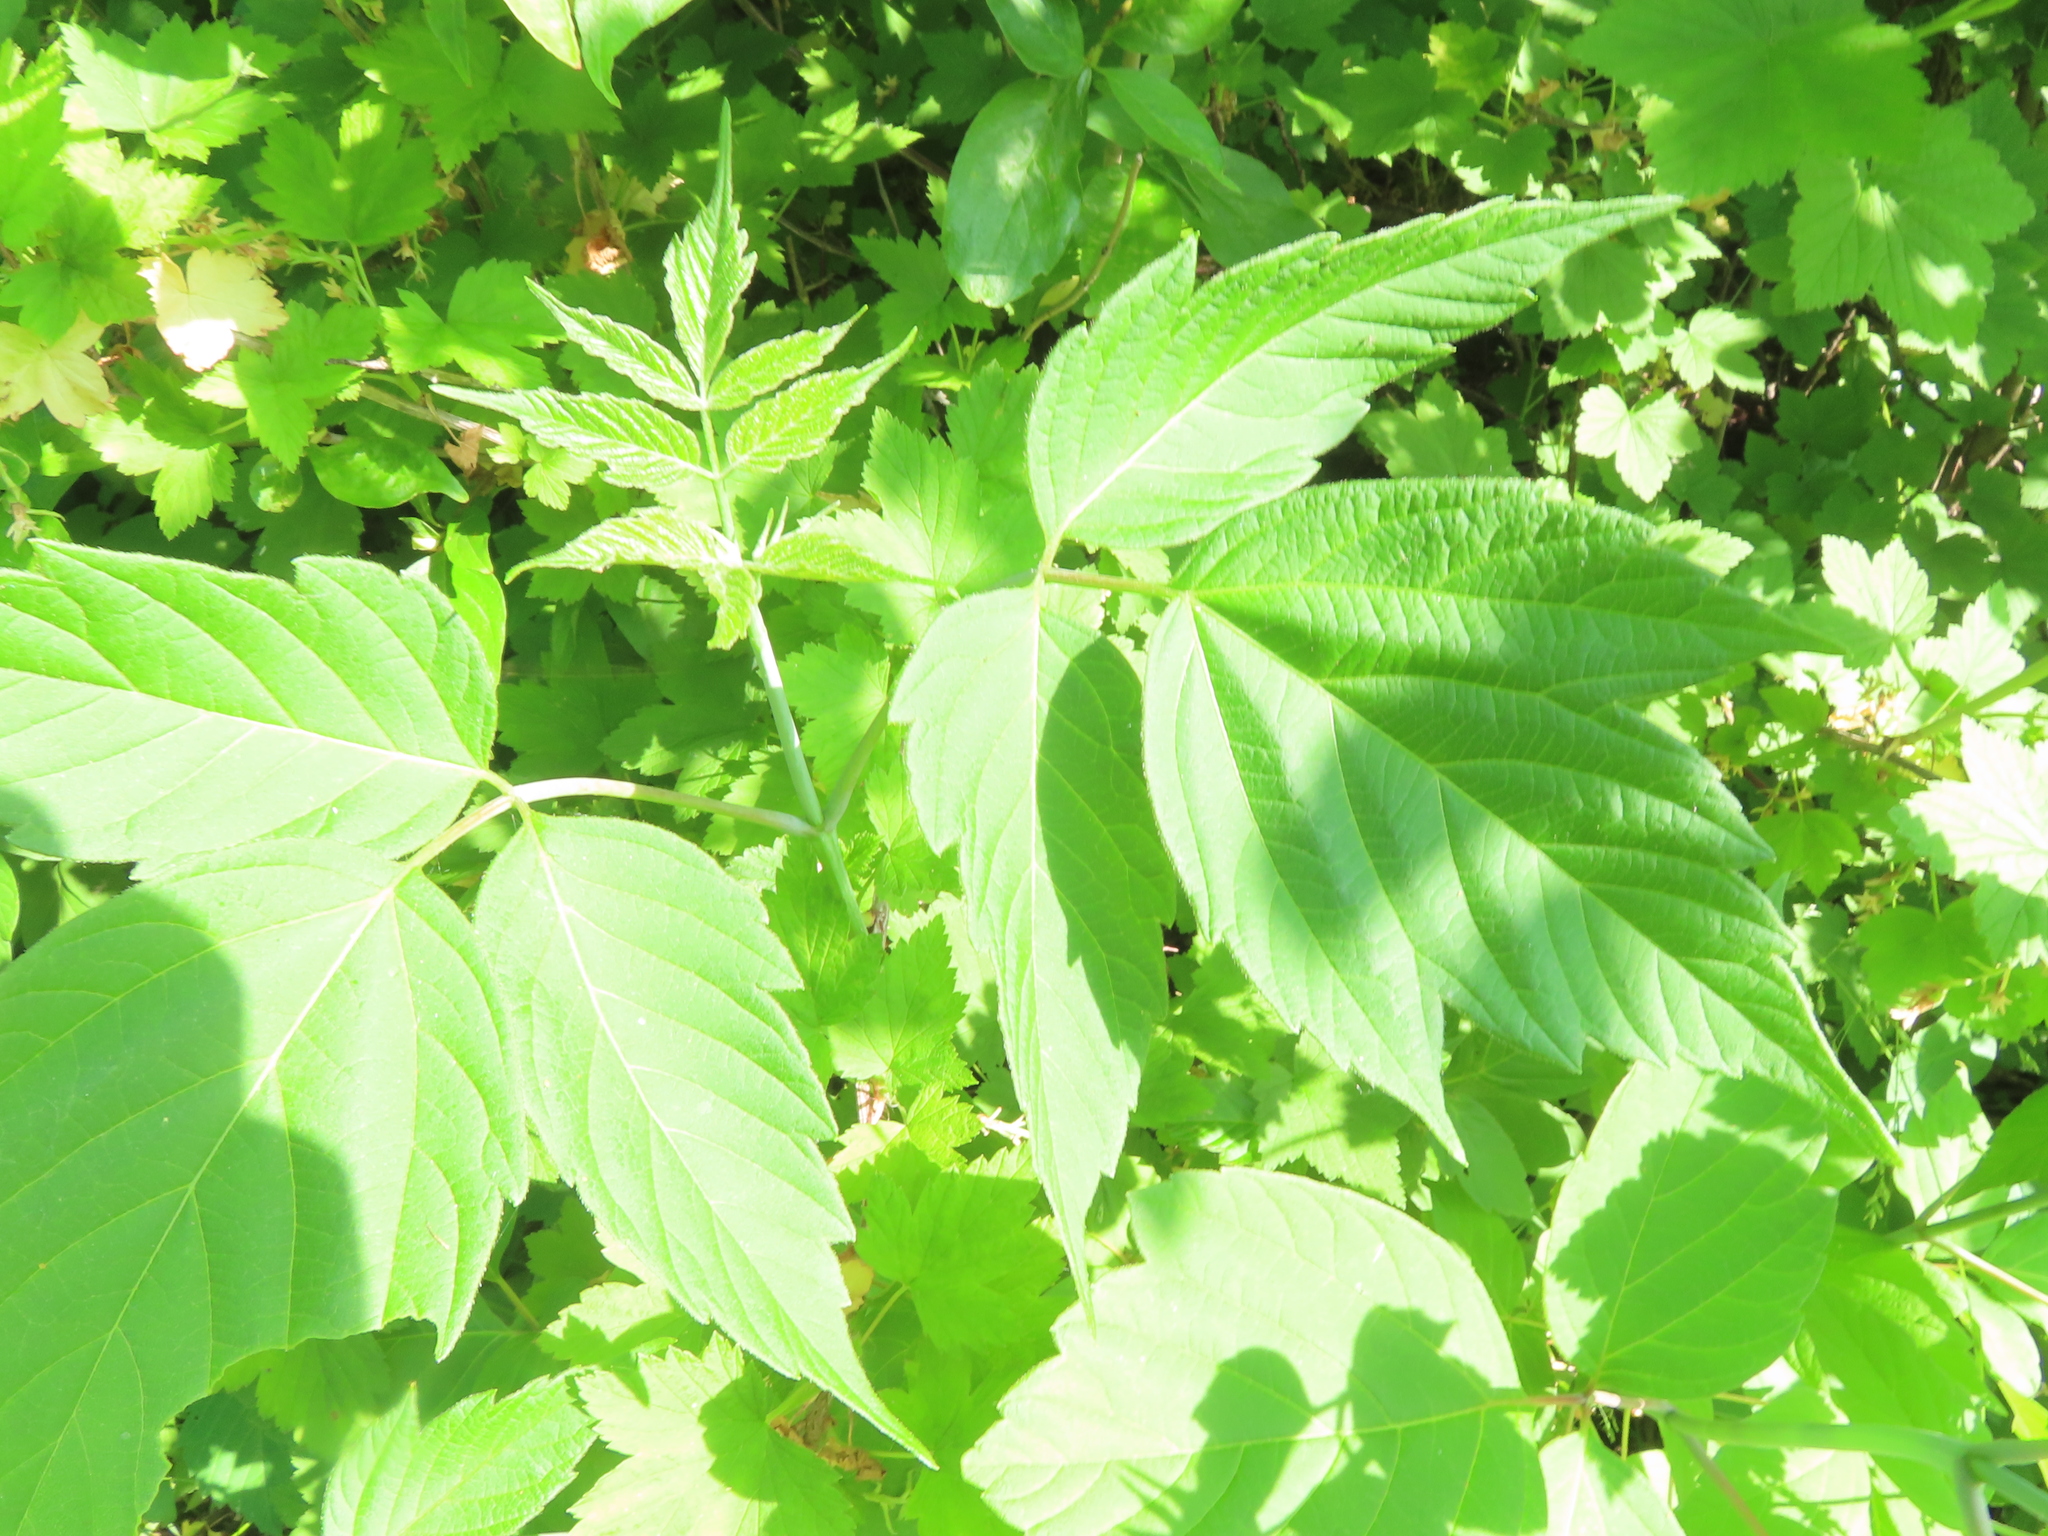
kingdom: Plantae
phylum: Tracheophyta
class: Magnoliopsida
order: Sapindales
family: Sapindaceae
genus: Acer
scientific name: Acer negundo
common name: Ashleaf maple
